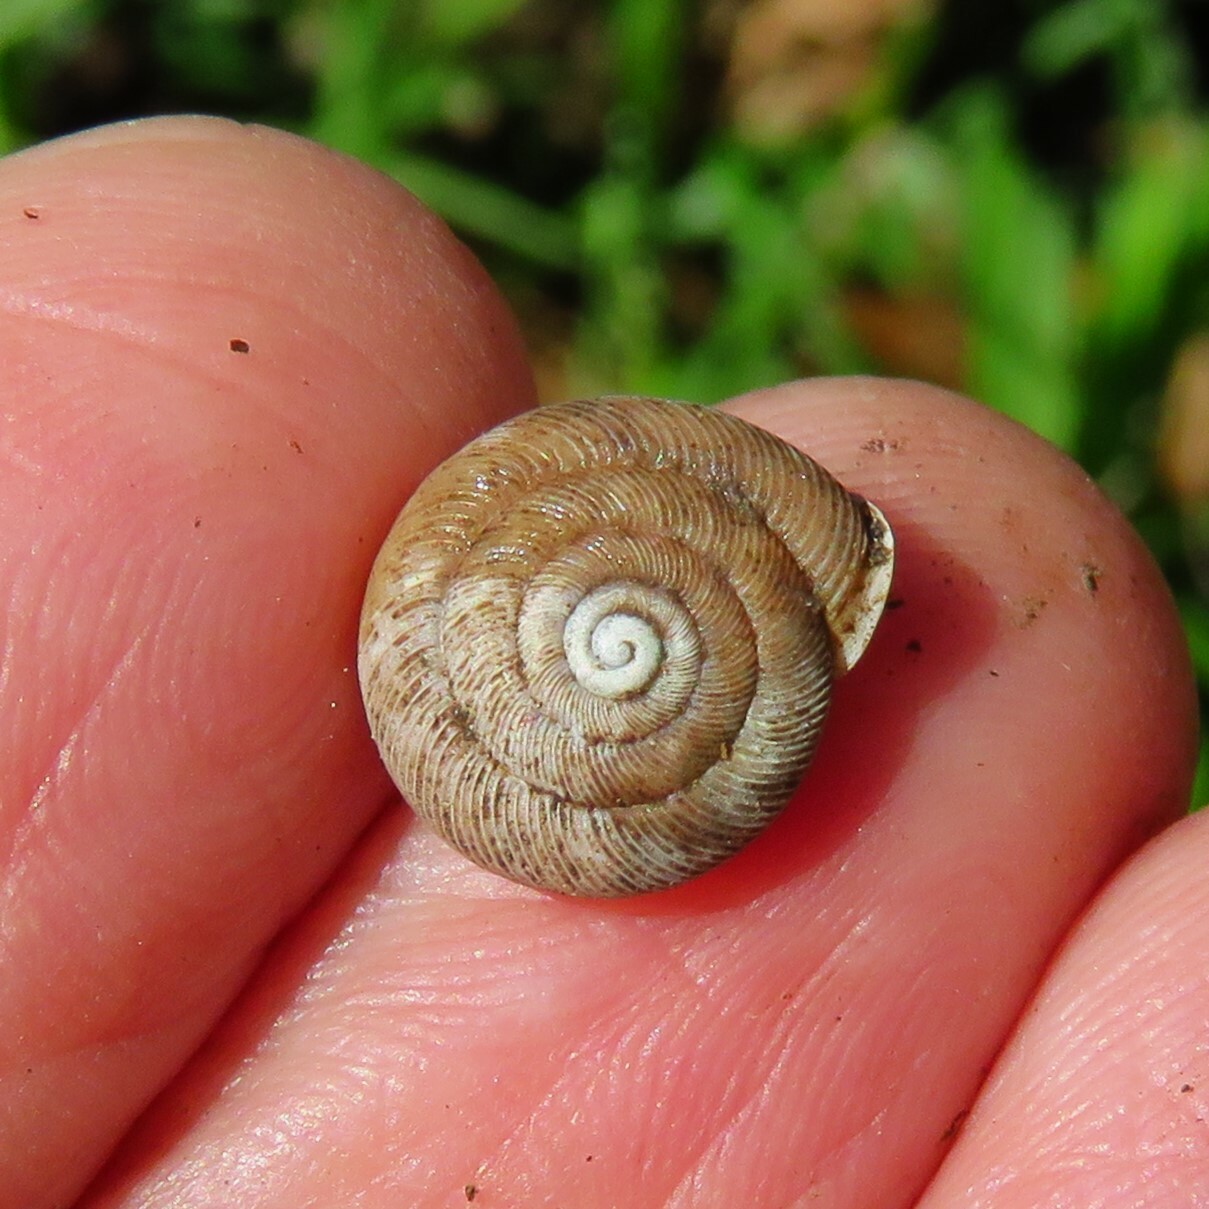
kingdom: Animalia
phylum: Mollusca
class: Gastropoda
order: Stylommatophora
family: Polygyridae
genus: Linisa
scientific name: Linisa texasiana
